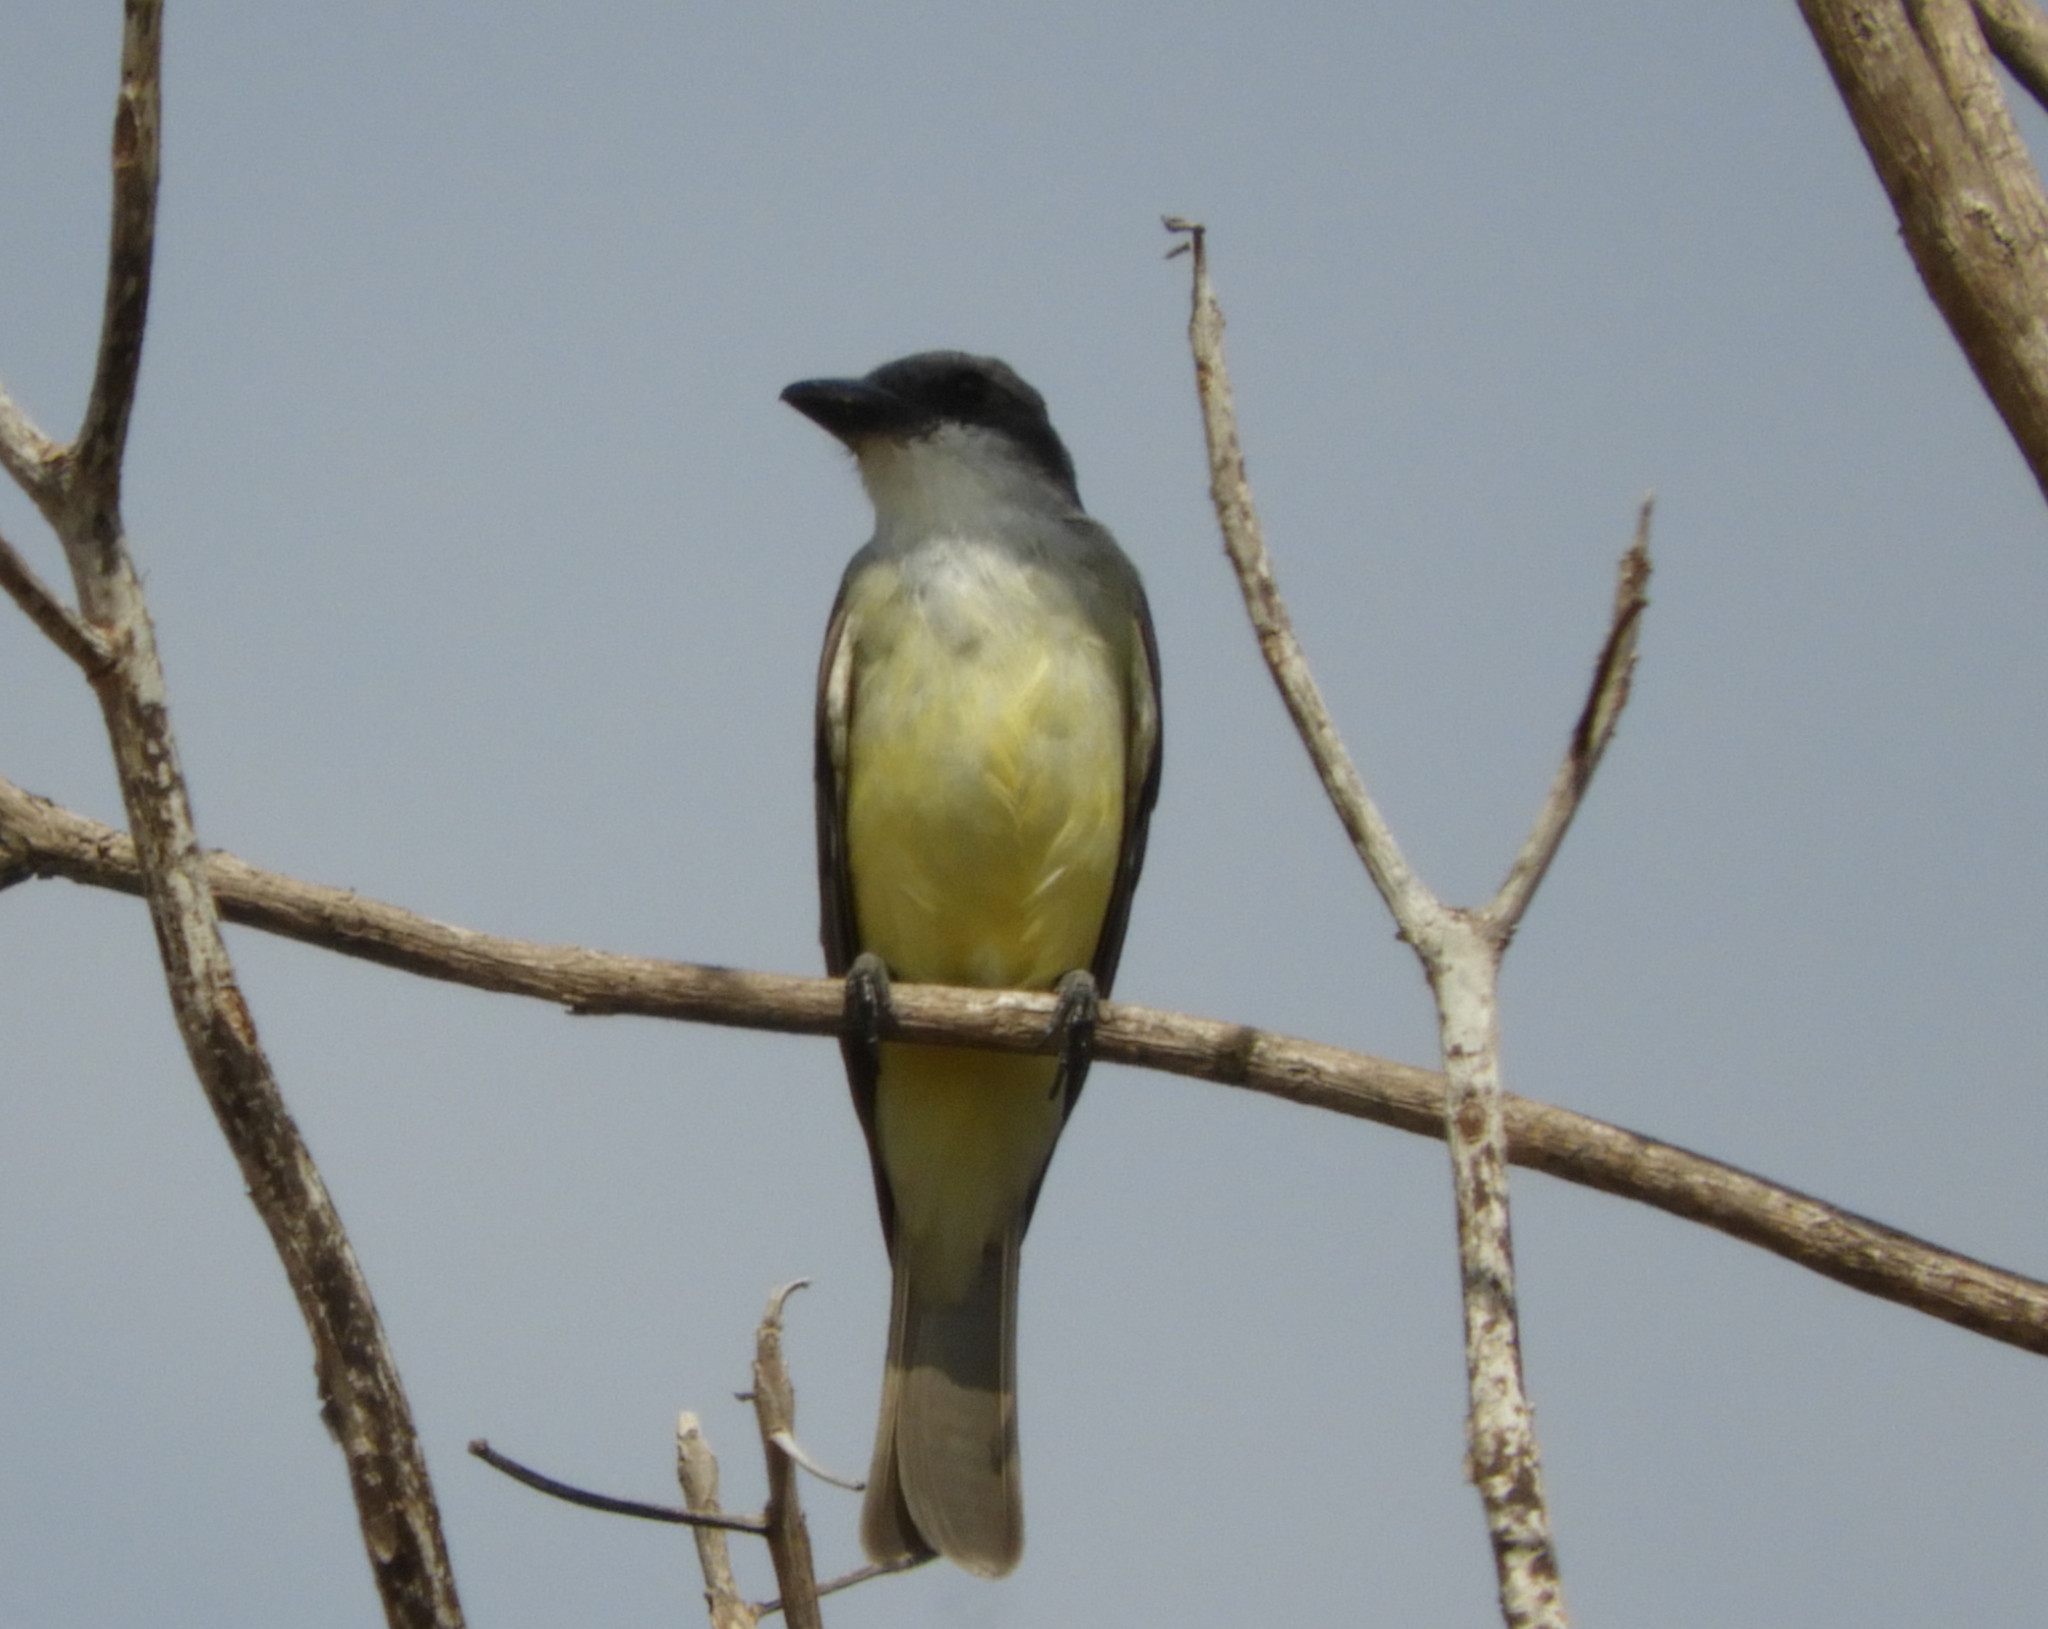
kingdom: Animalia
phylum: Chordata
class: Aves
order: Passeriformes
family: Tyrannidae
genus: Tyrannus
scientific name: Tyrannus crassirostris
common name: Thick-billed kingbird
